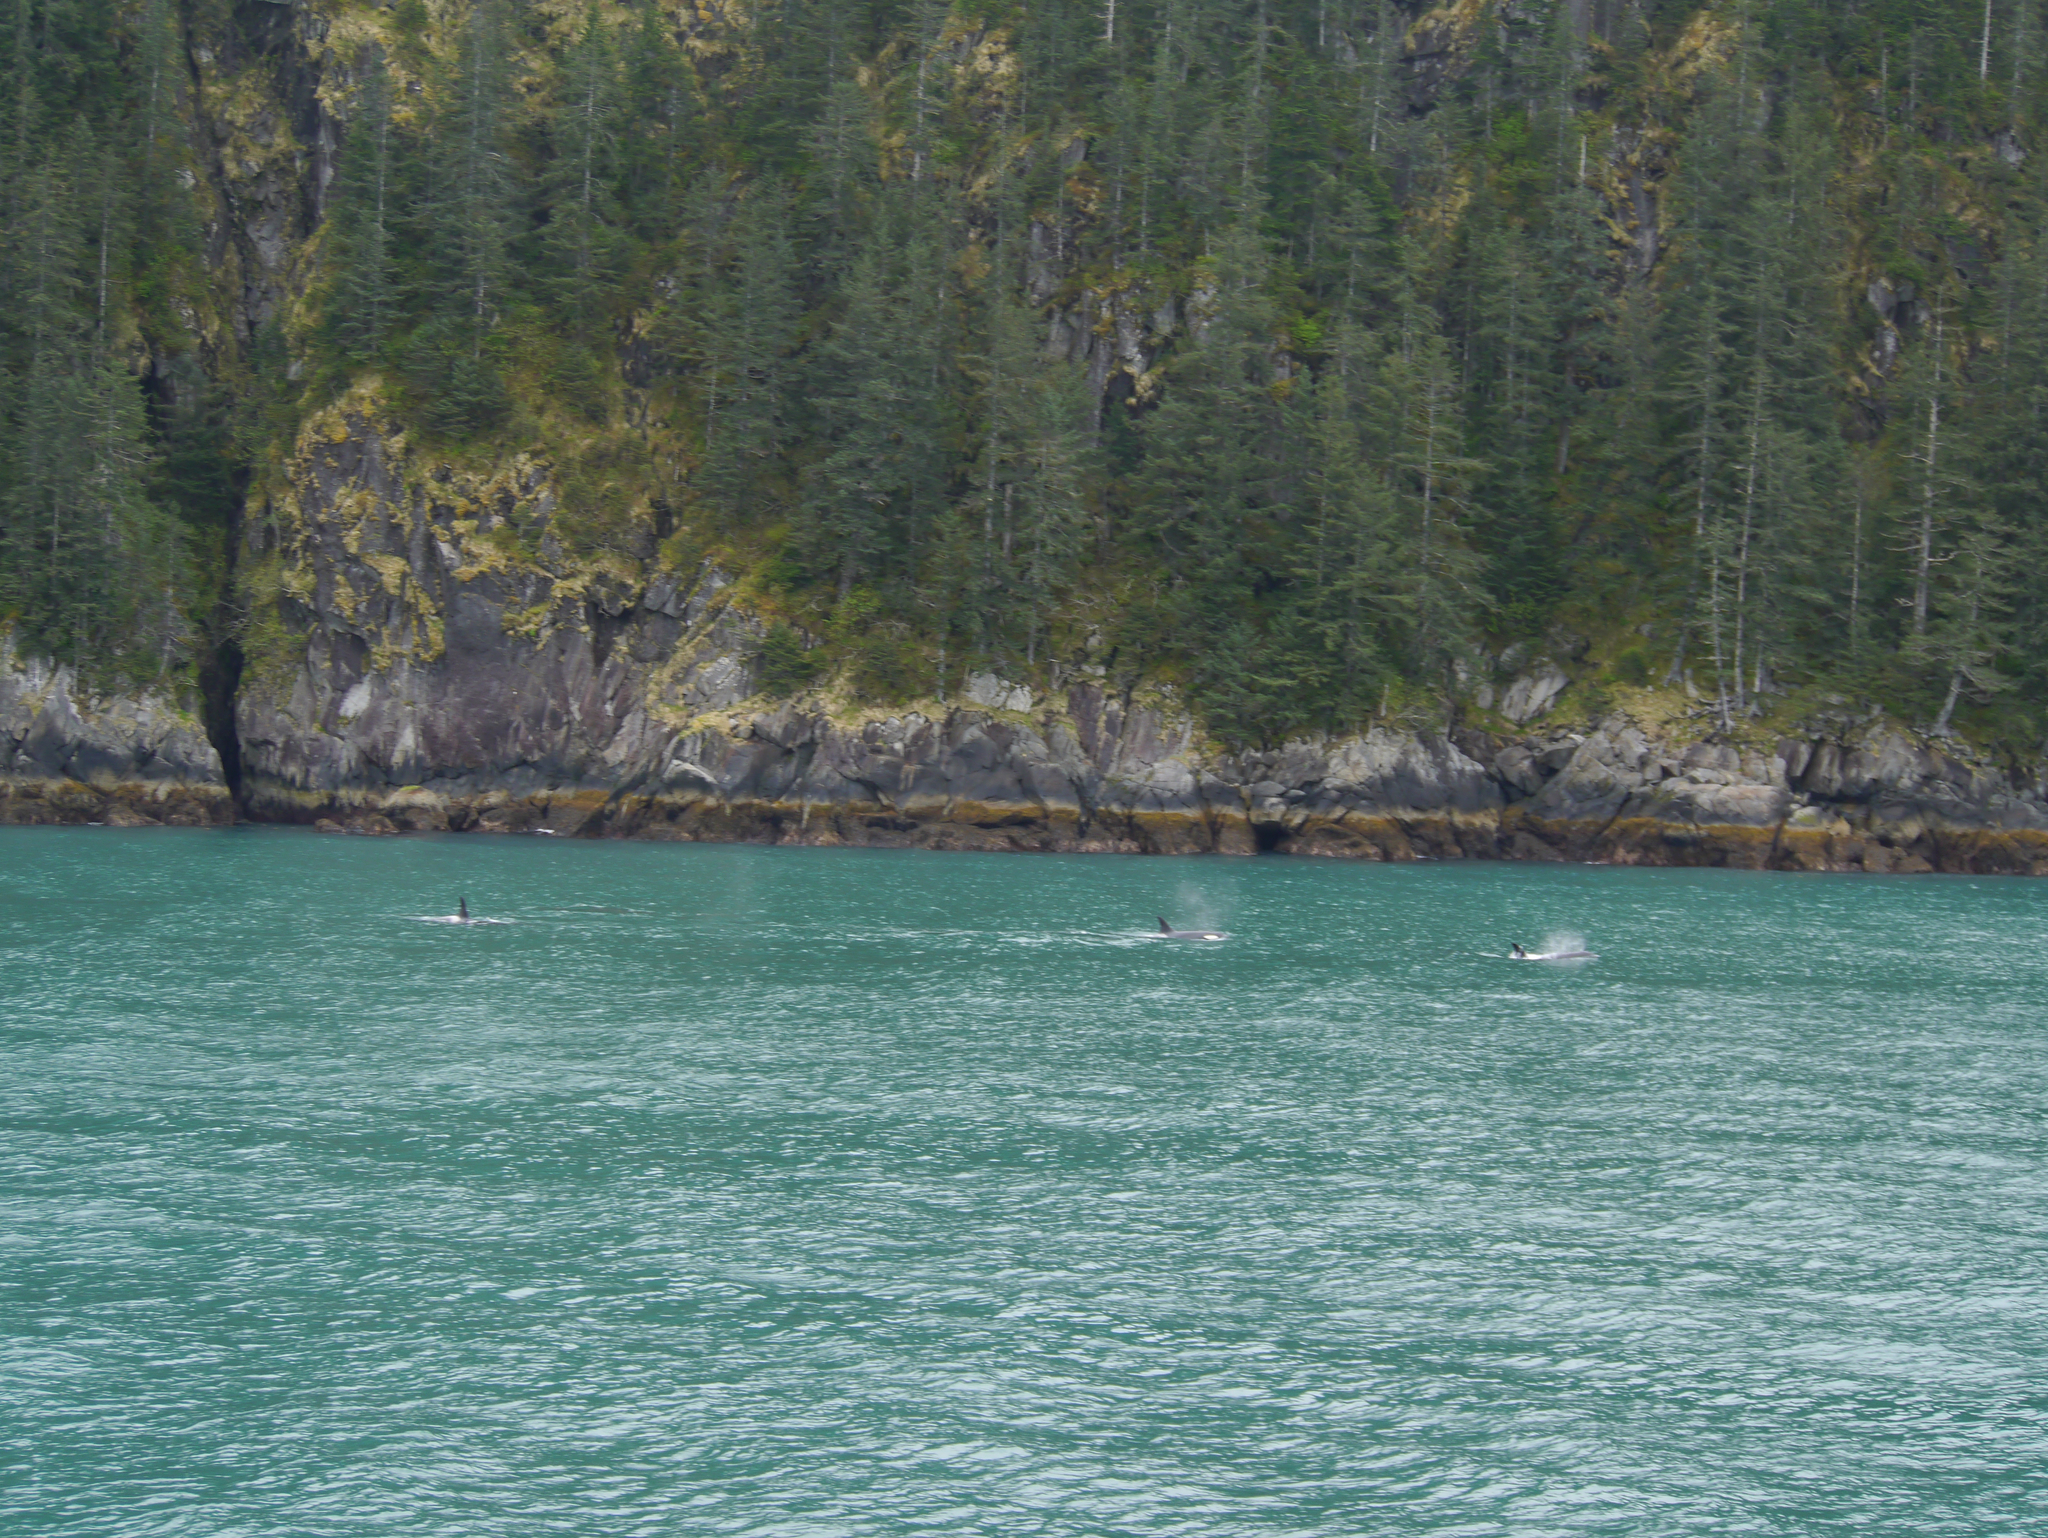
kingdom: Animalia
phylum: Chordata
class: Mammalia
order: Cetacea
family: Delphinidae
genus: Orcinus
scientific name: Orcinus orca
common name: Killer whale
